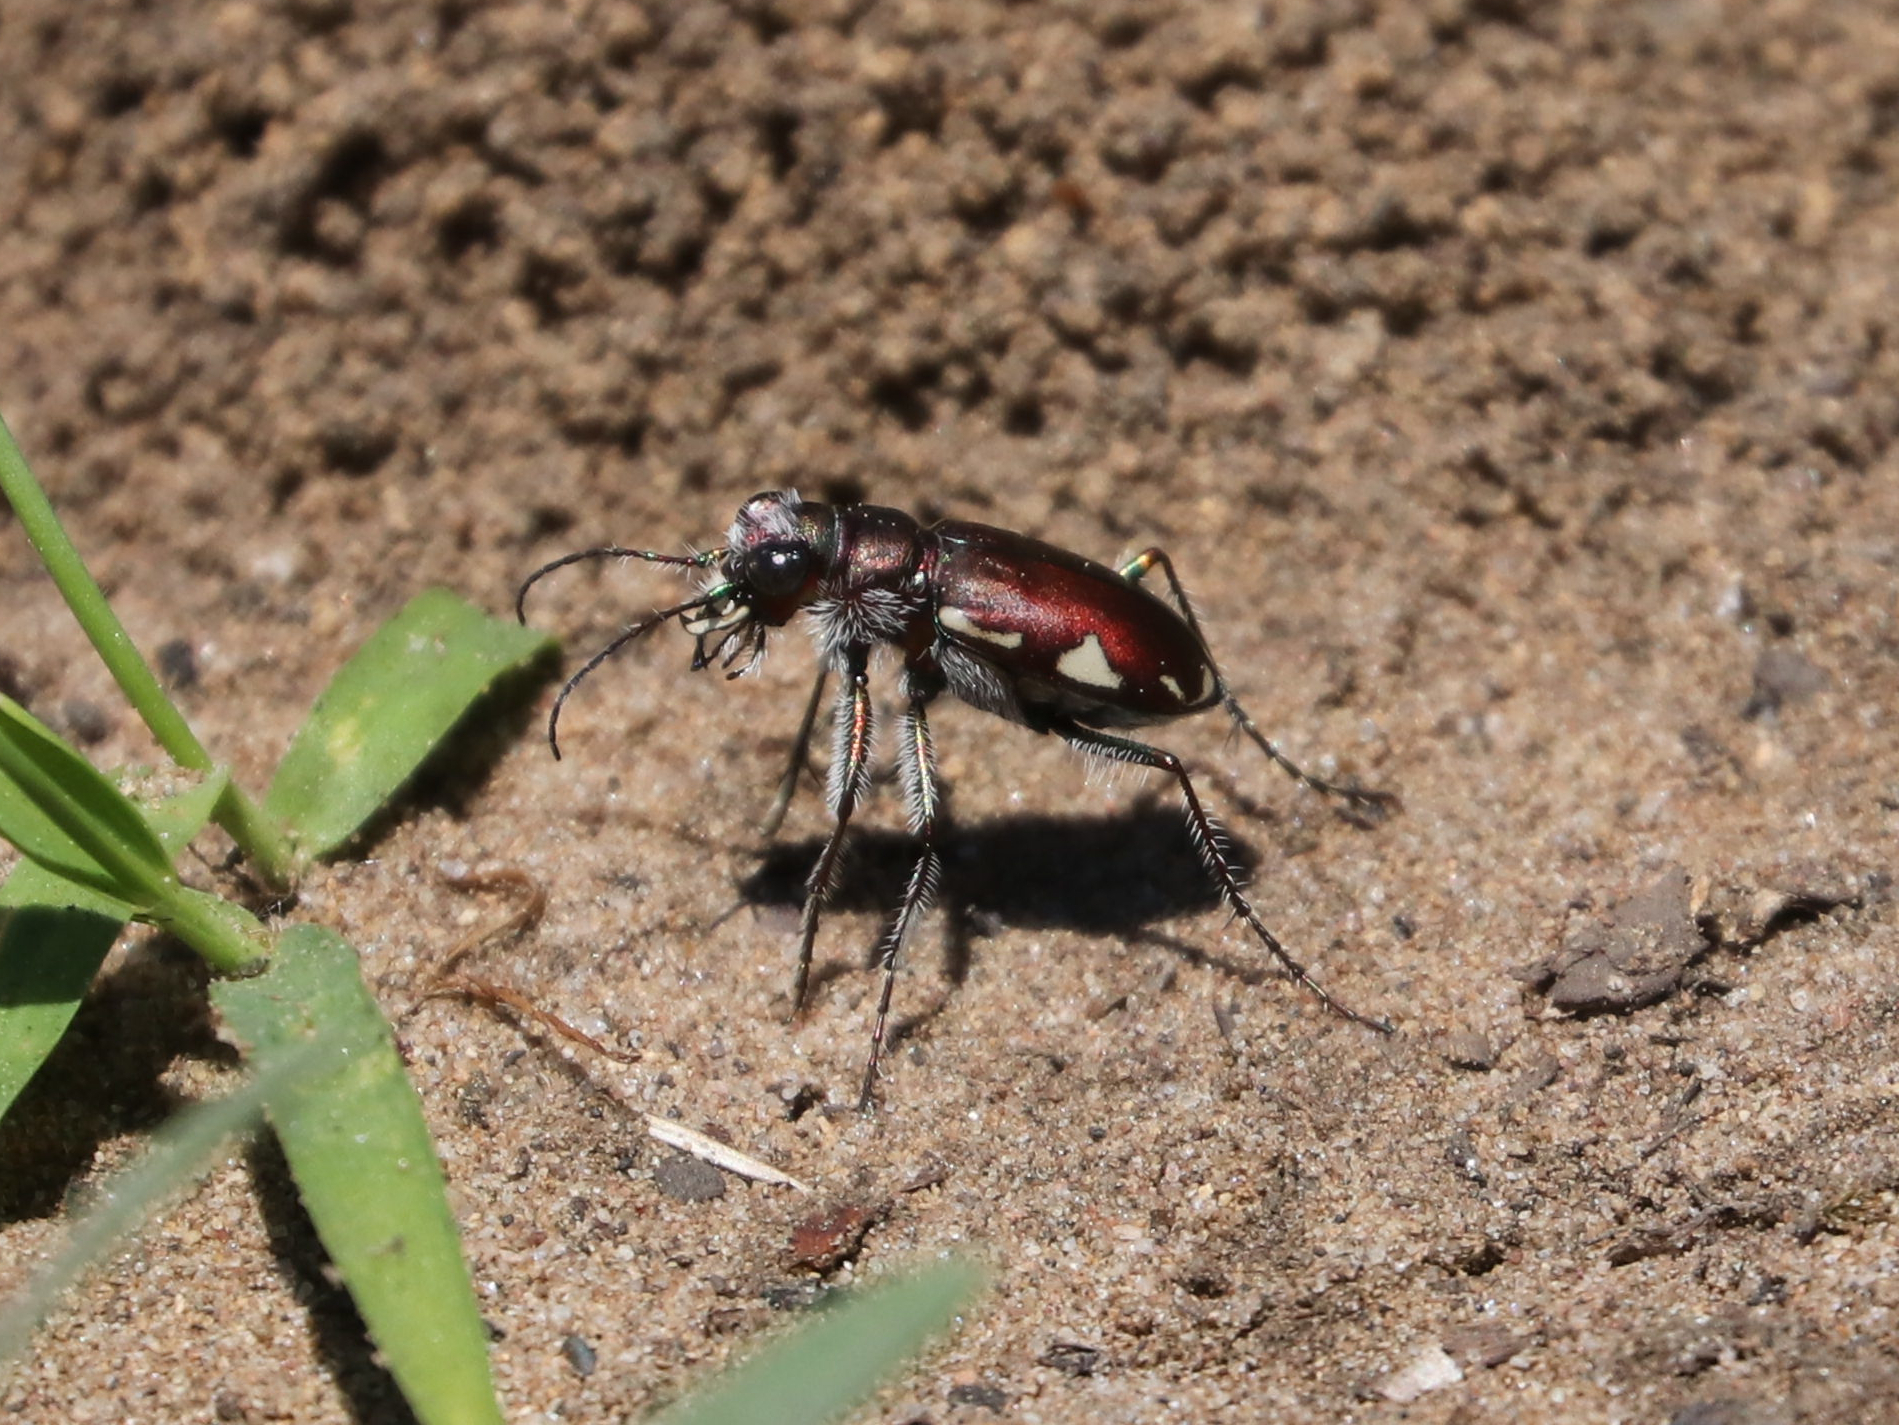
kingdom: Animalia
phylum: Arthropoda
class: Insecta
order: Coleoptera
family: Carabidae
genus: Cicindela
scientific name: Cicindela scutellaris
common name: Festive tiger beetle
